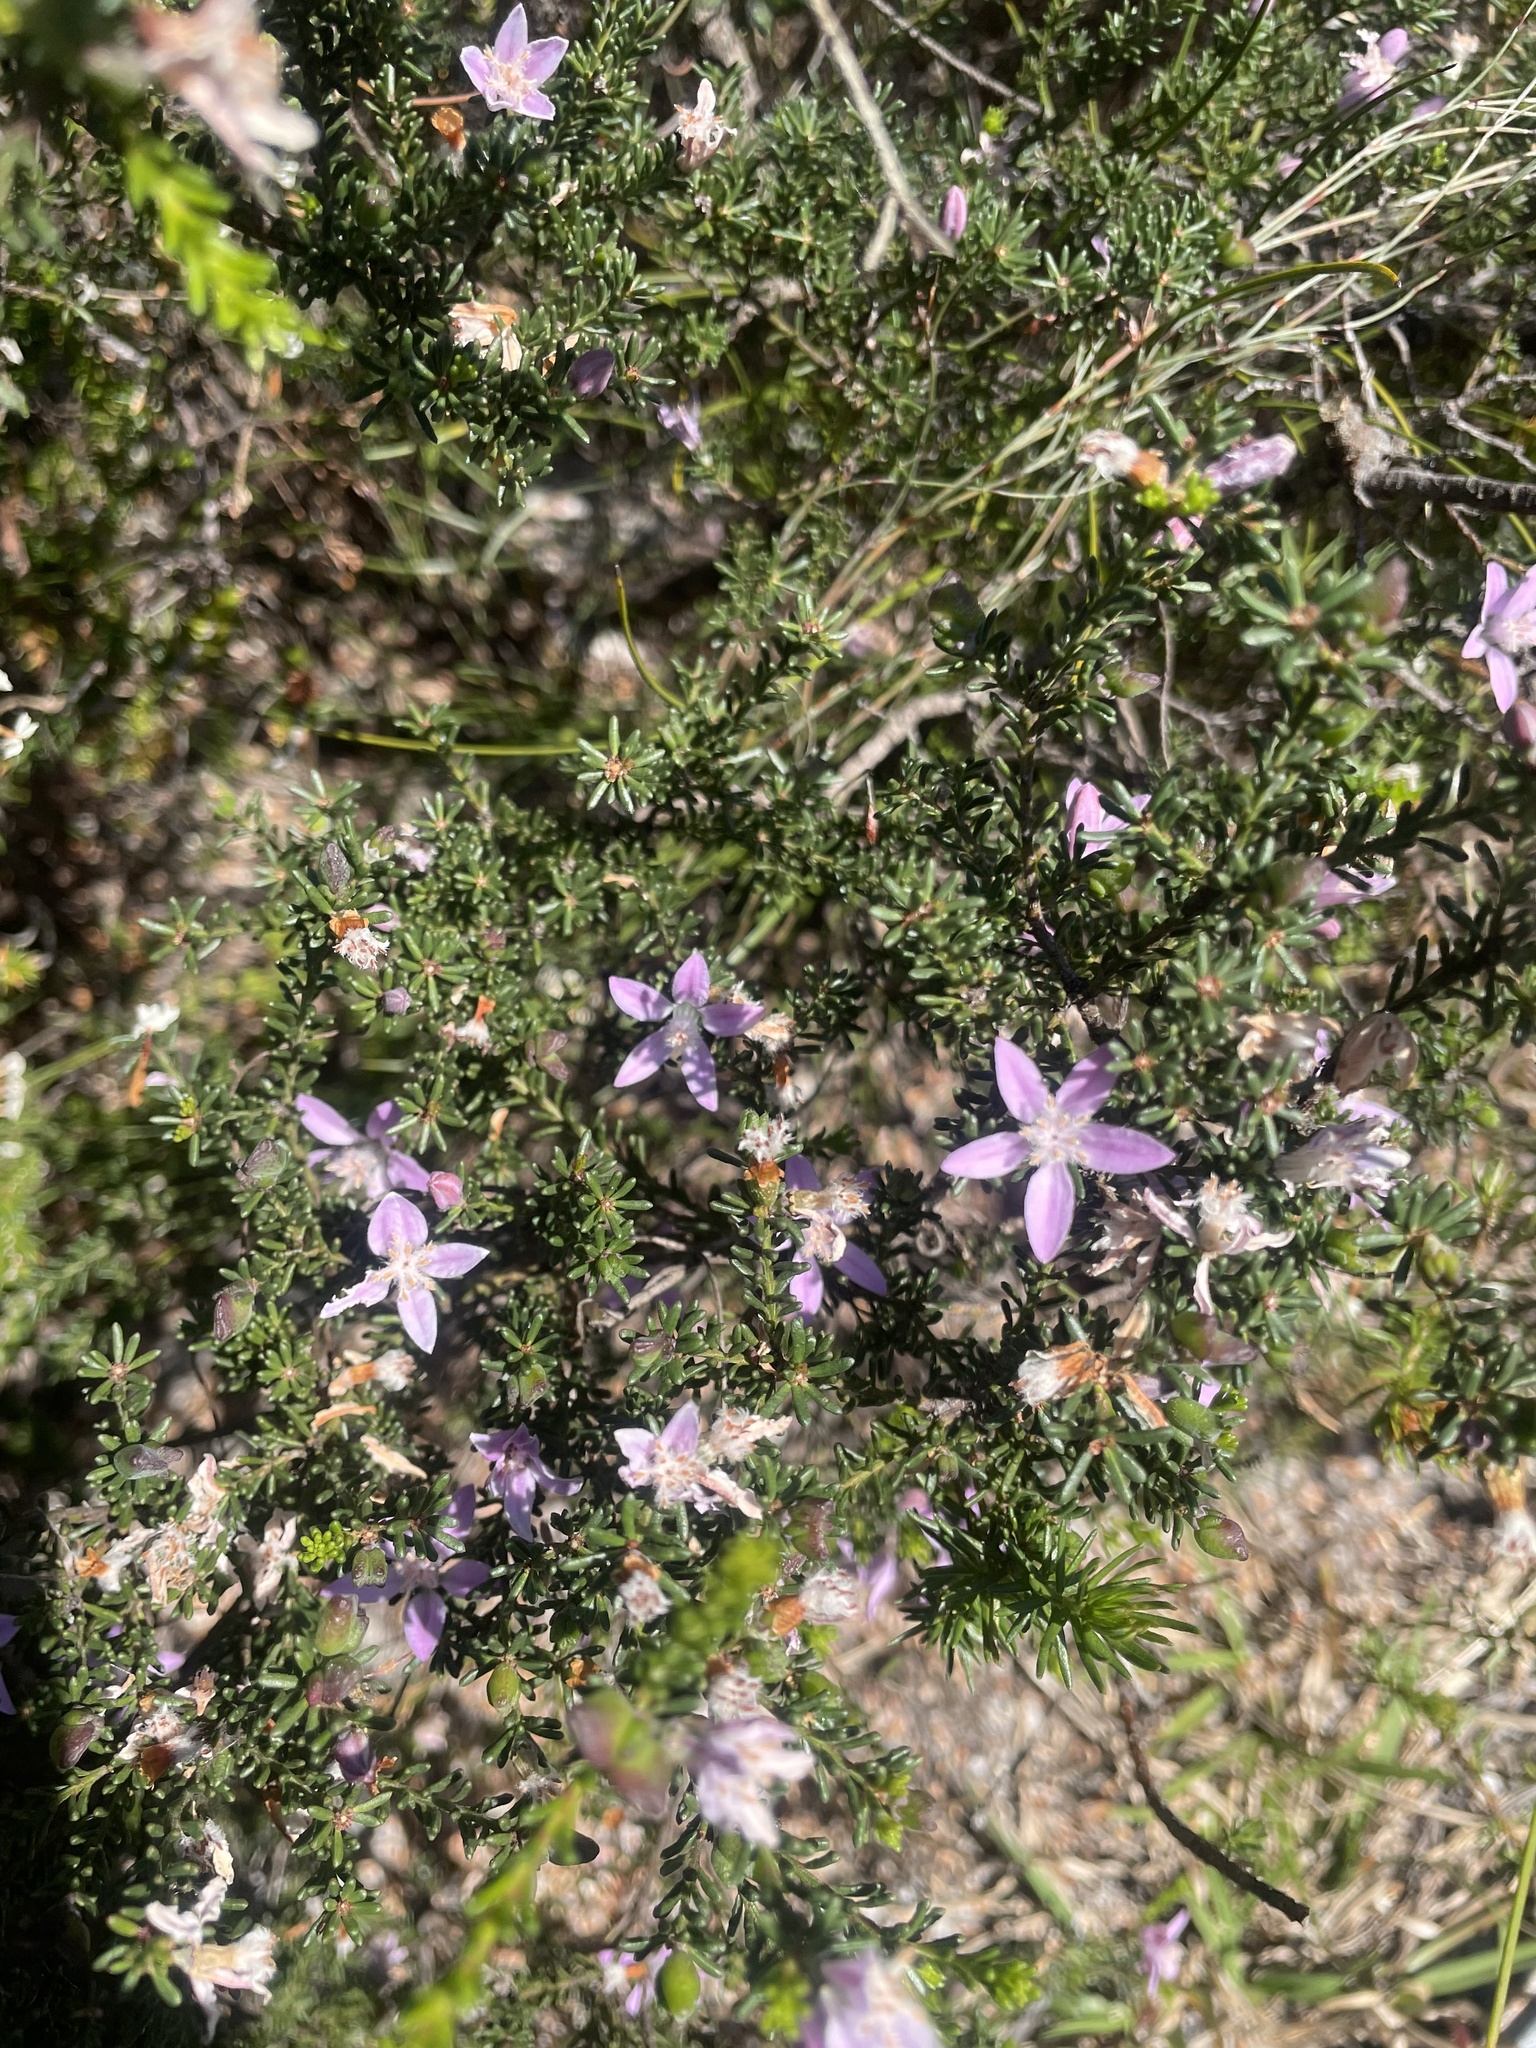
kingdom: Plantae
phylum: Tracheophyta
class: Magnoliopsida
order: Sapindales
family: Rutaceae
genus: Philotheca
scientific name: Philotheca salsolifolia
